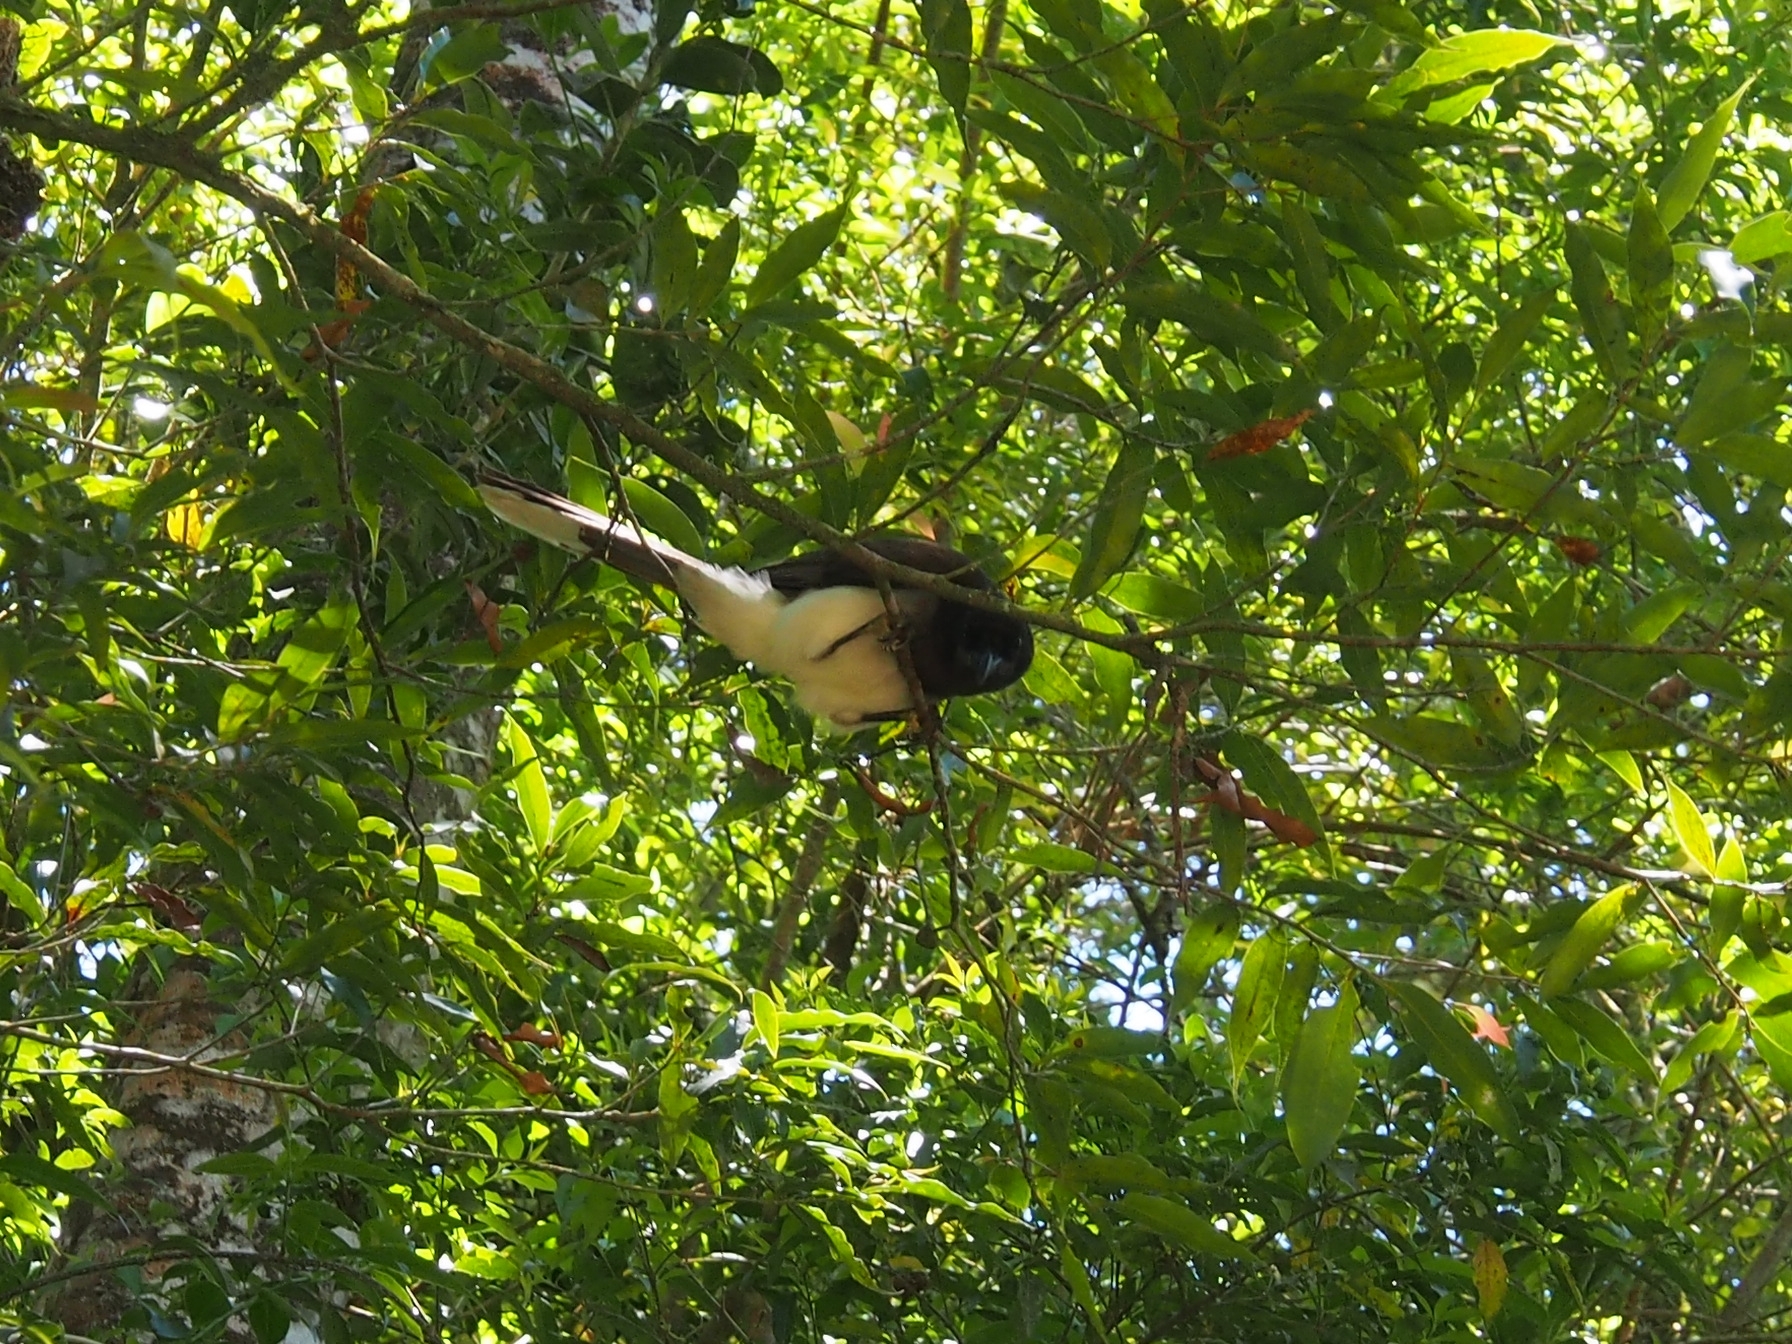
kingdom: Animalia
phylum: Chordata
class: Aves
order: Passeriformes
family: Corvidae
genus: Psilorhinus
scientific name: Psilorhinus morio
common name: Brown jay
